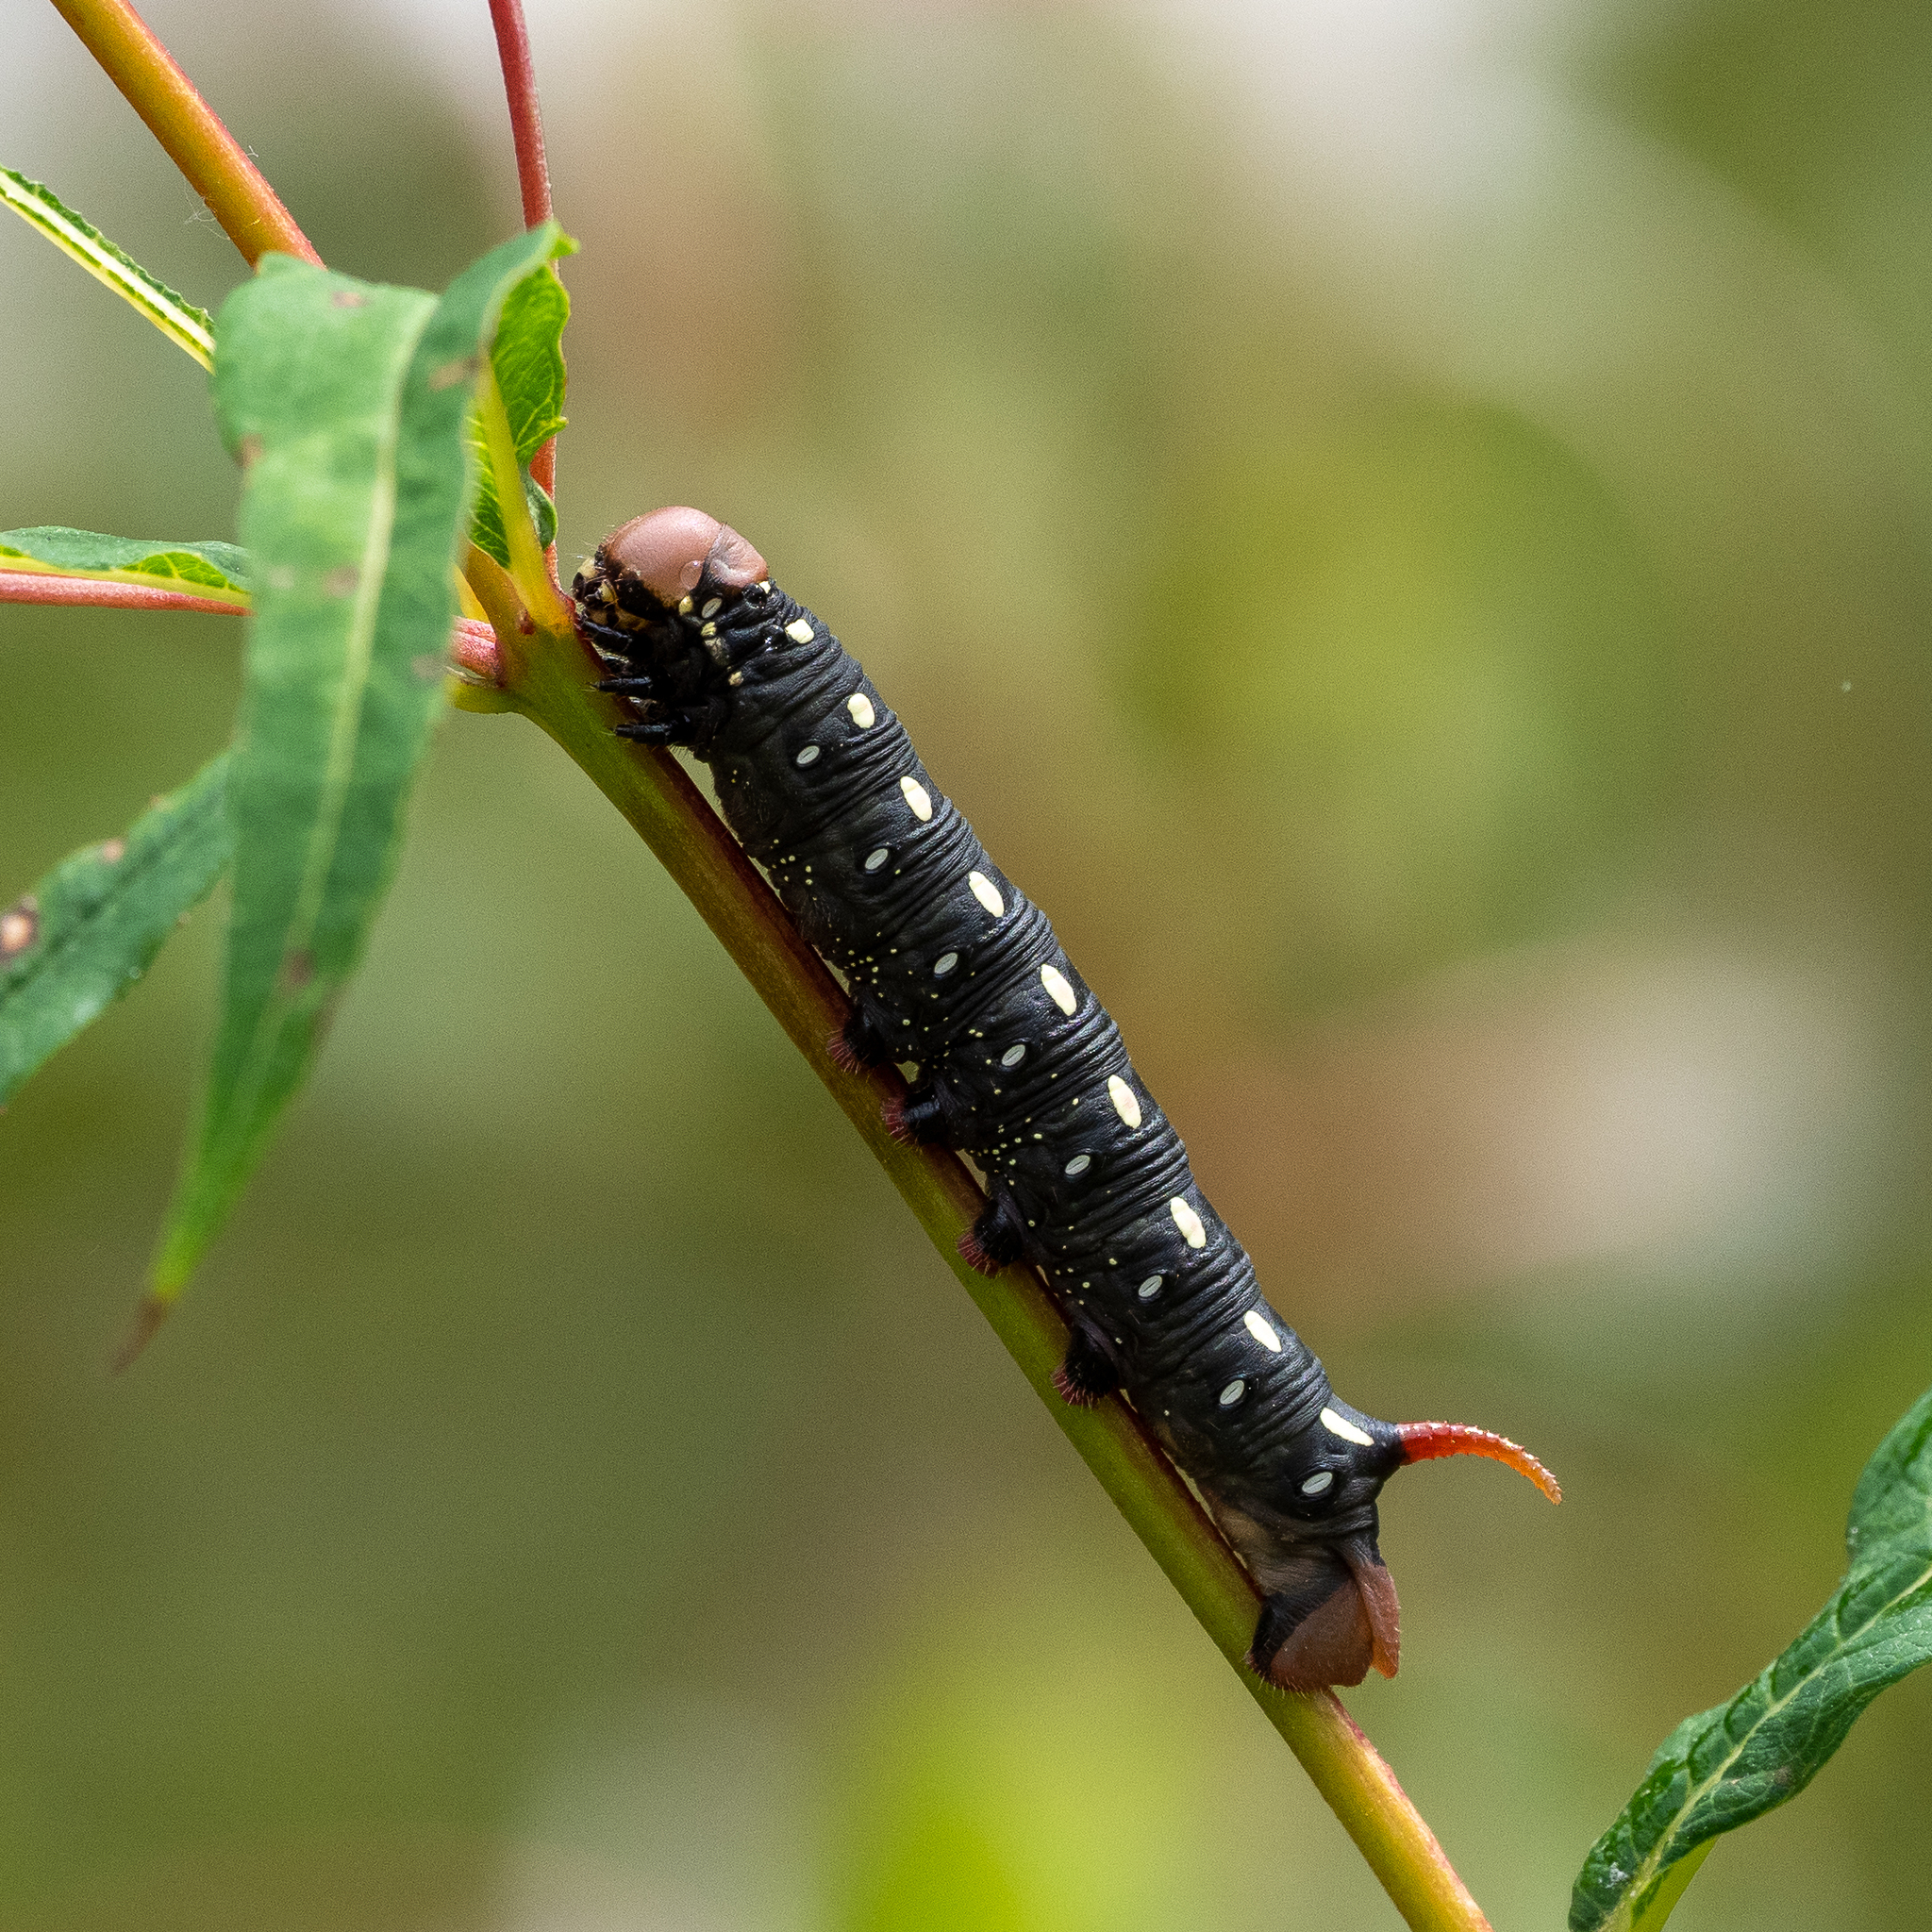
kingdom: Animalia
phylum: Arthropoda
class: Insecta
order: Lepidoptera
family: Sphingidae
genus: Hyles
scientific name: Hyles gallii
